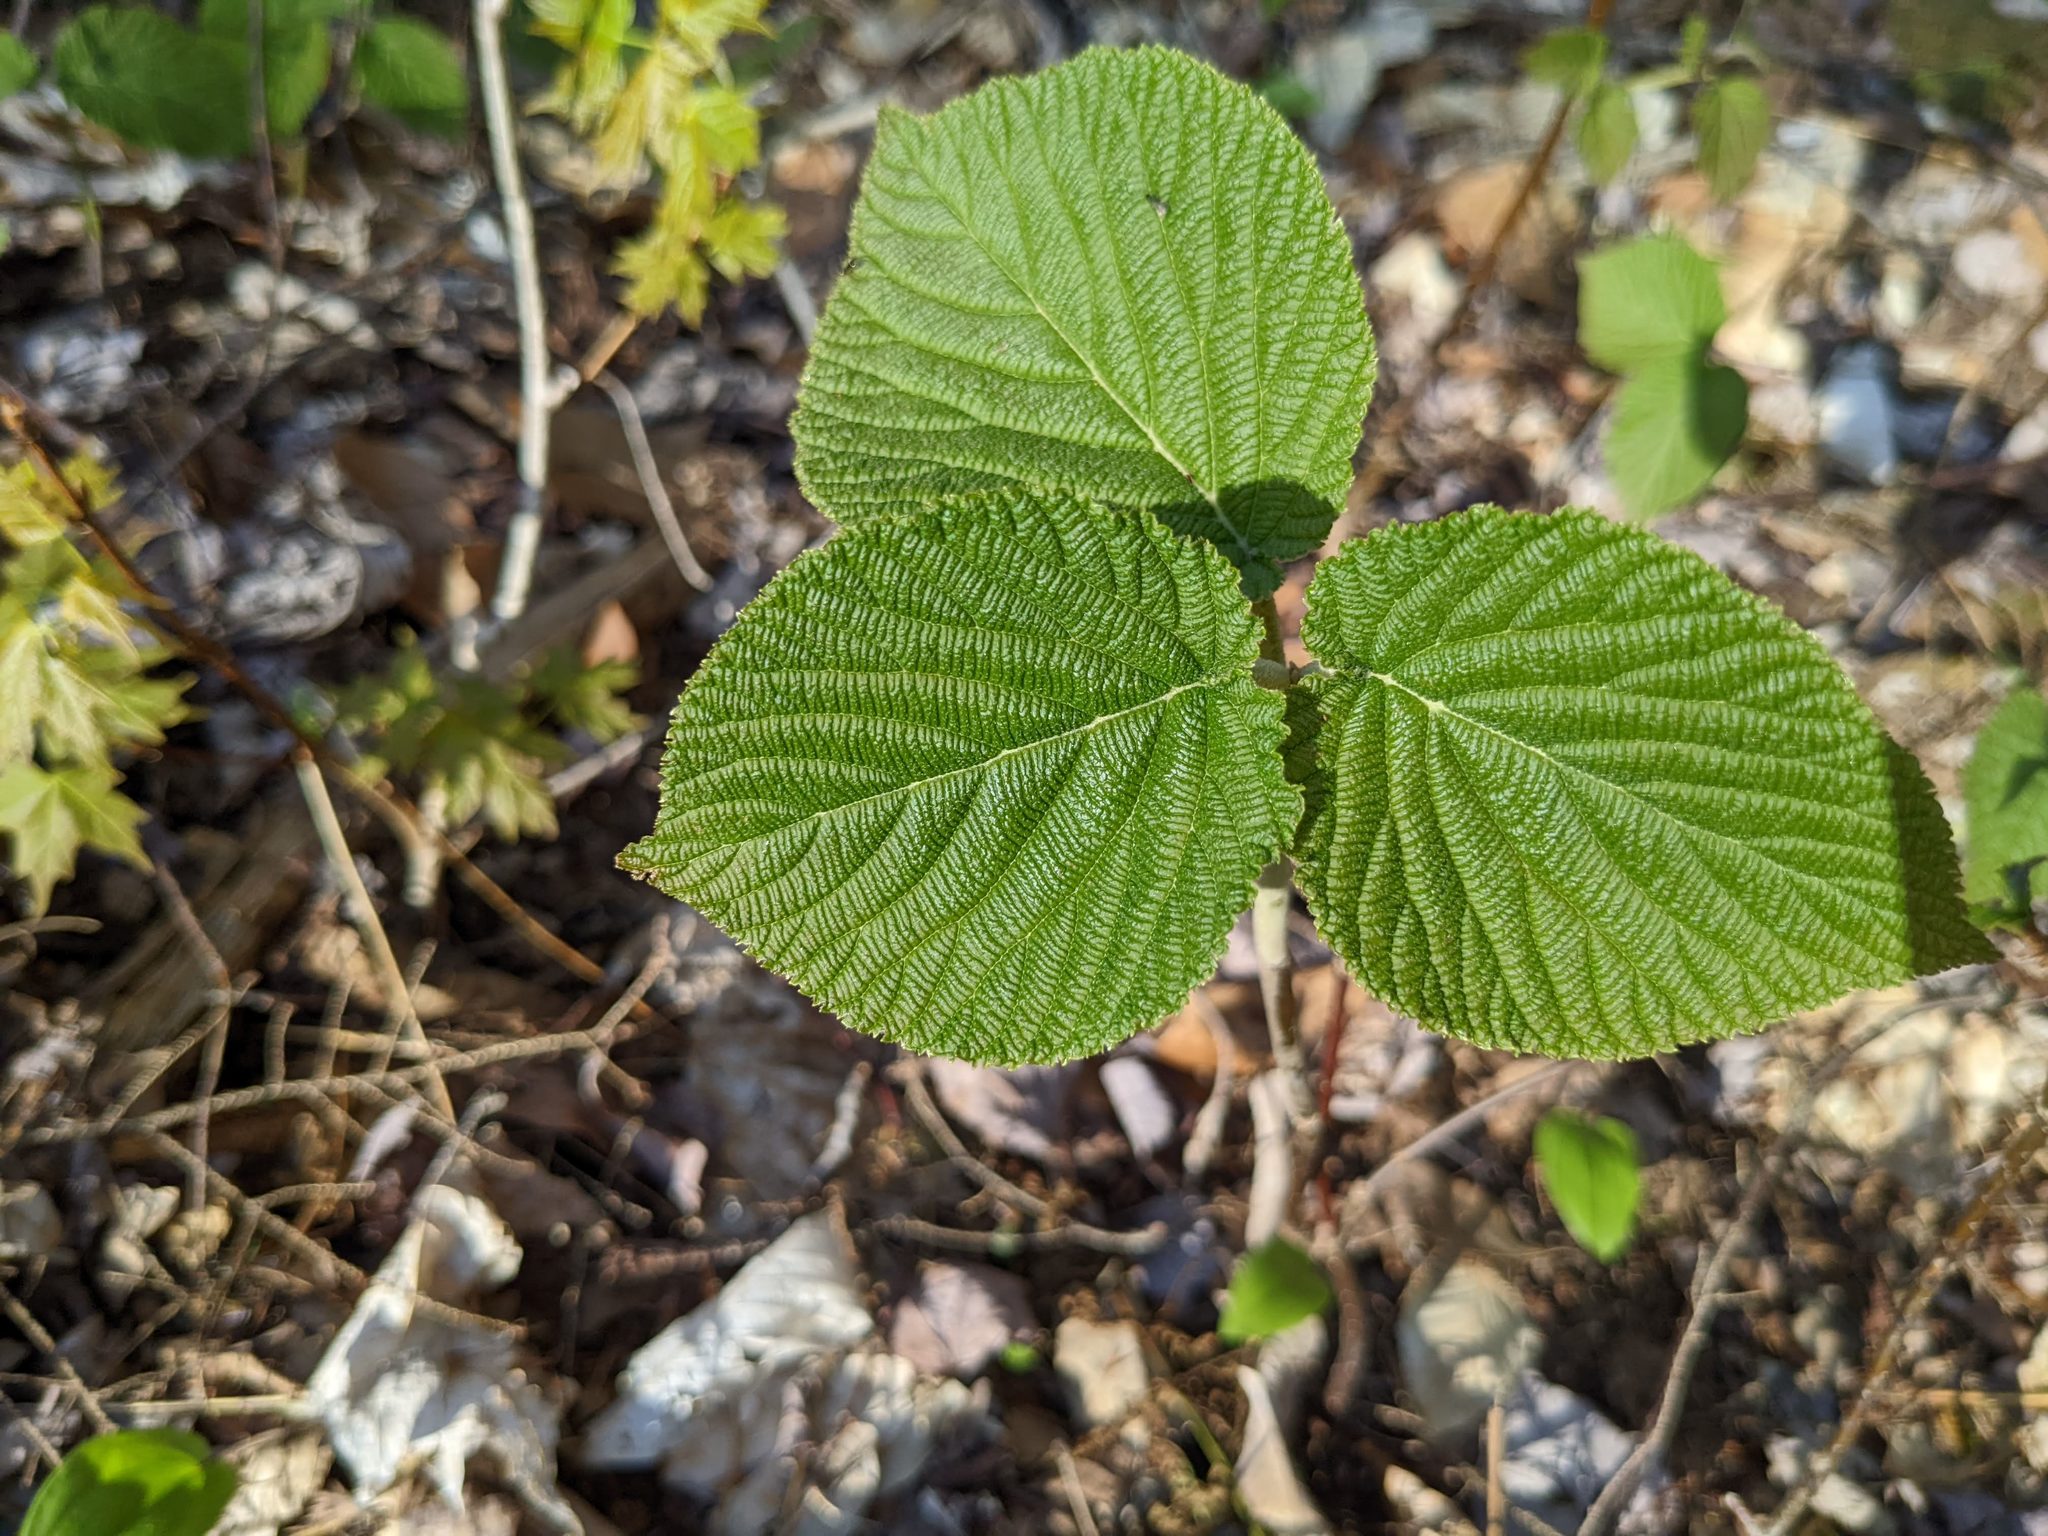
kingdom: Plantae
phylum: Tracheophyta
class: Magnoliopsida
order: Dipsacales
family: Viburnaceae
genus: Viburnum
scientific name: Viburnum lantanoides
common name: Hobblebush
